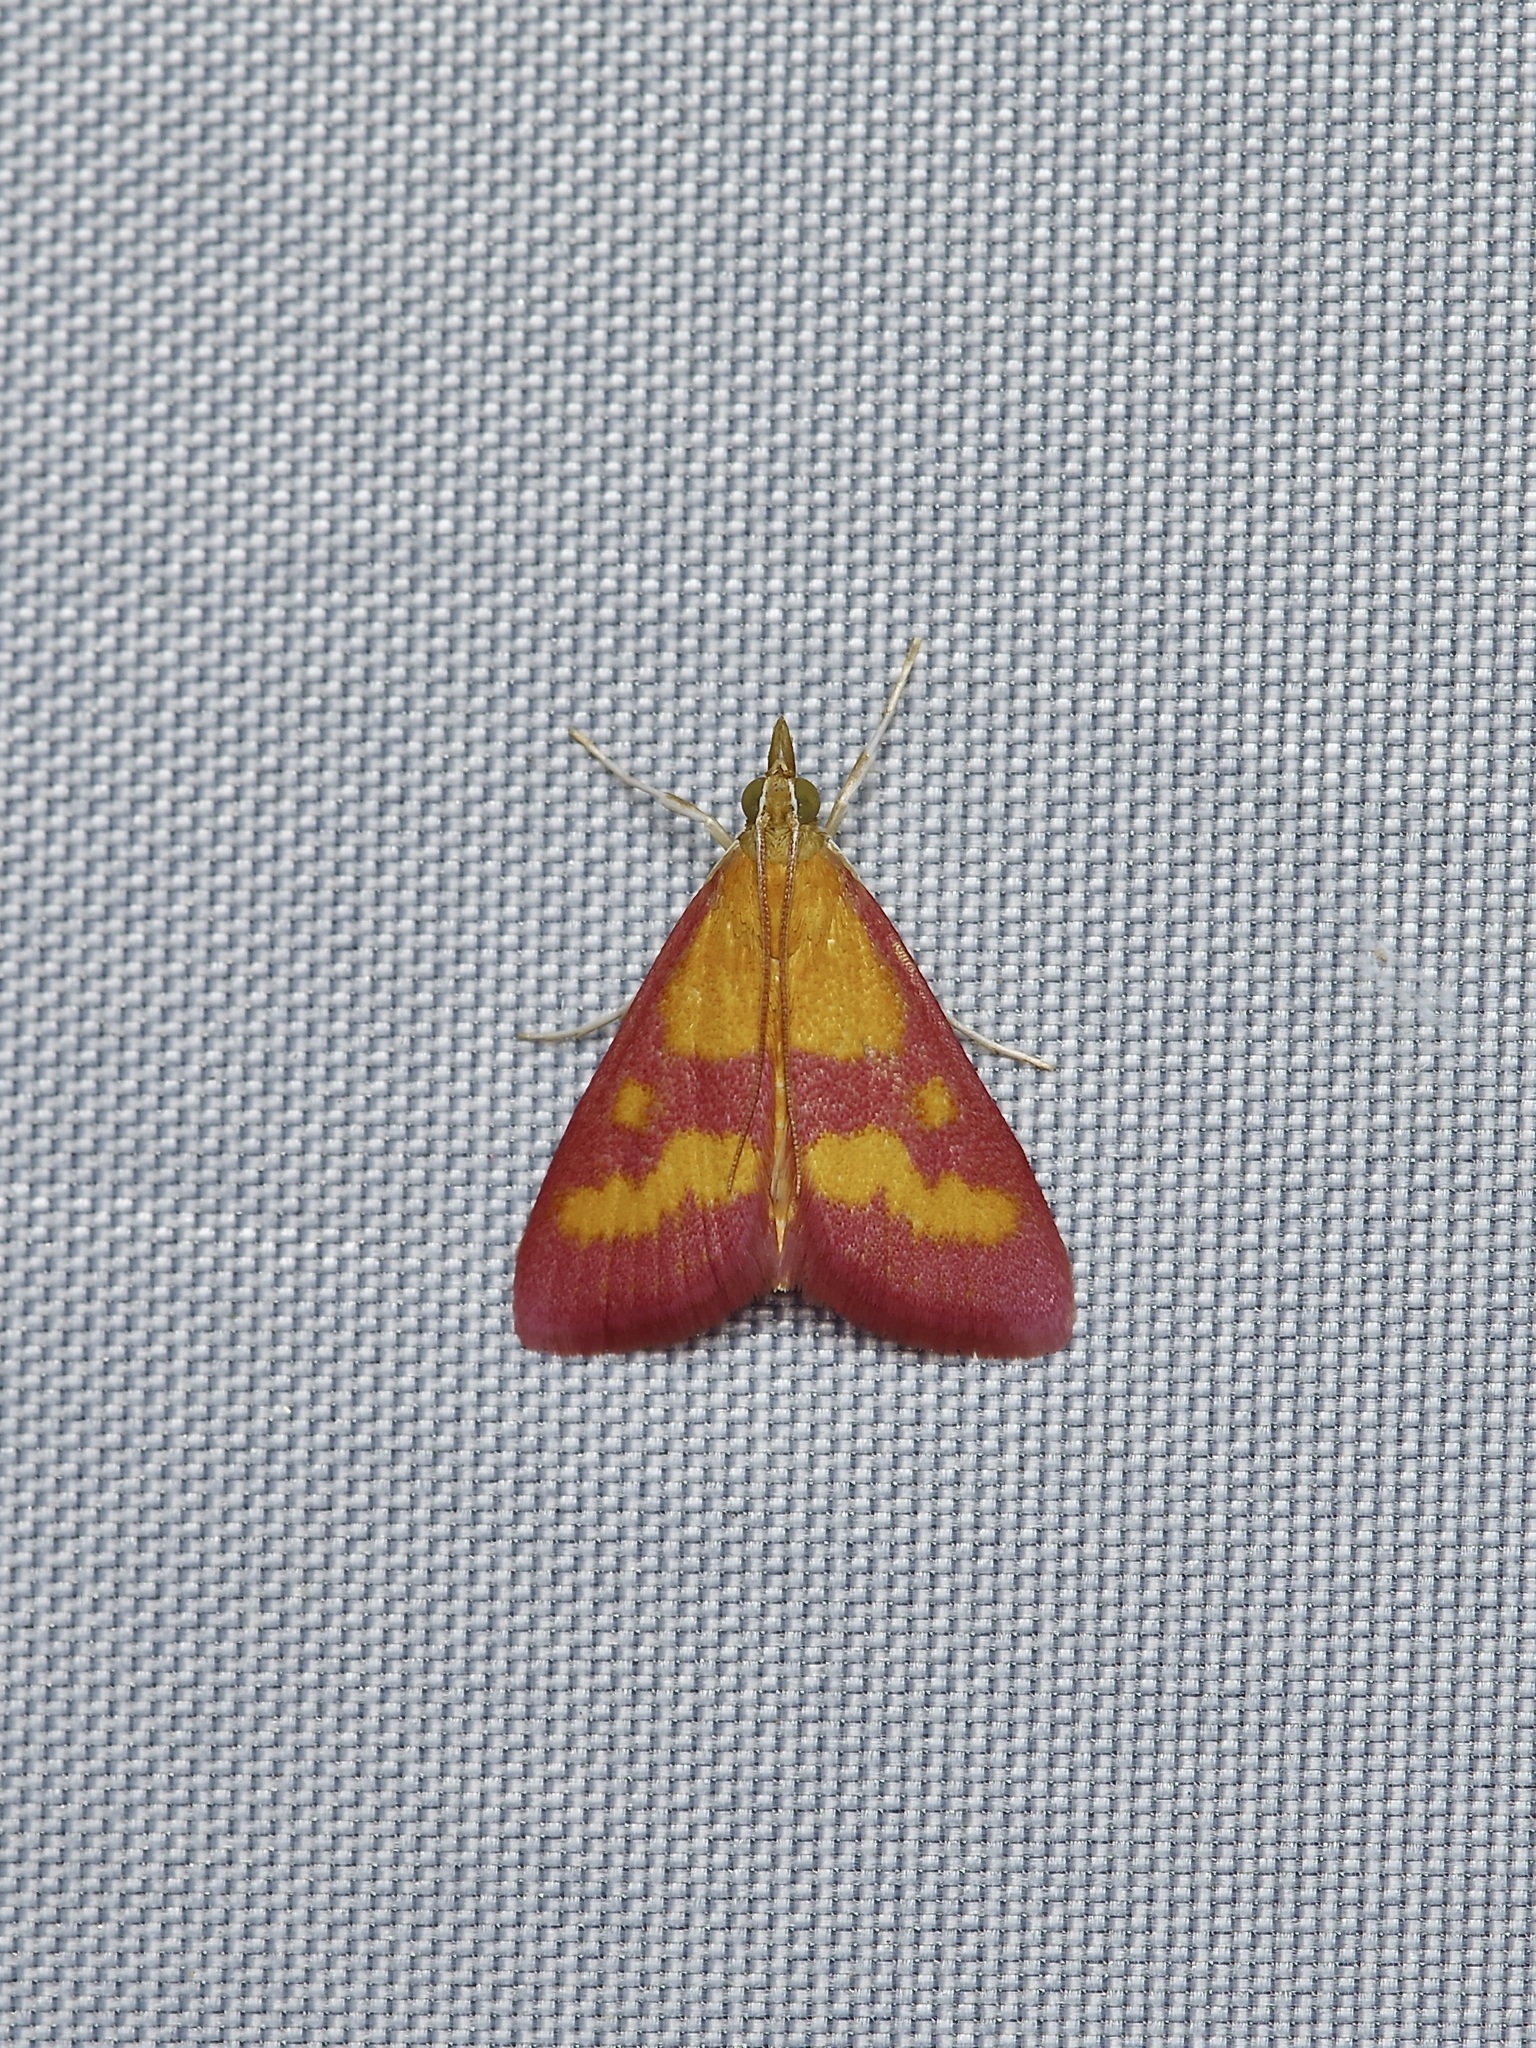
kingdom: Animalia
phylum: Arthropoda
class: Insecta
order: Lepidoptera
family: Crambidae
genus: Pyrausta
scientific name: Pyrausta laticlavia
